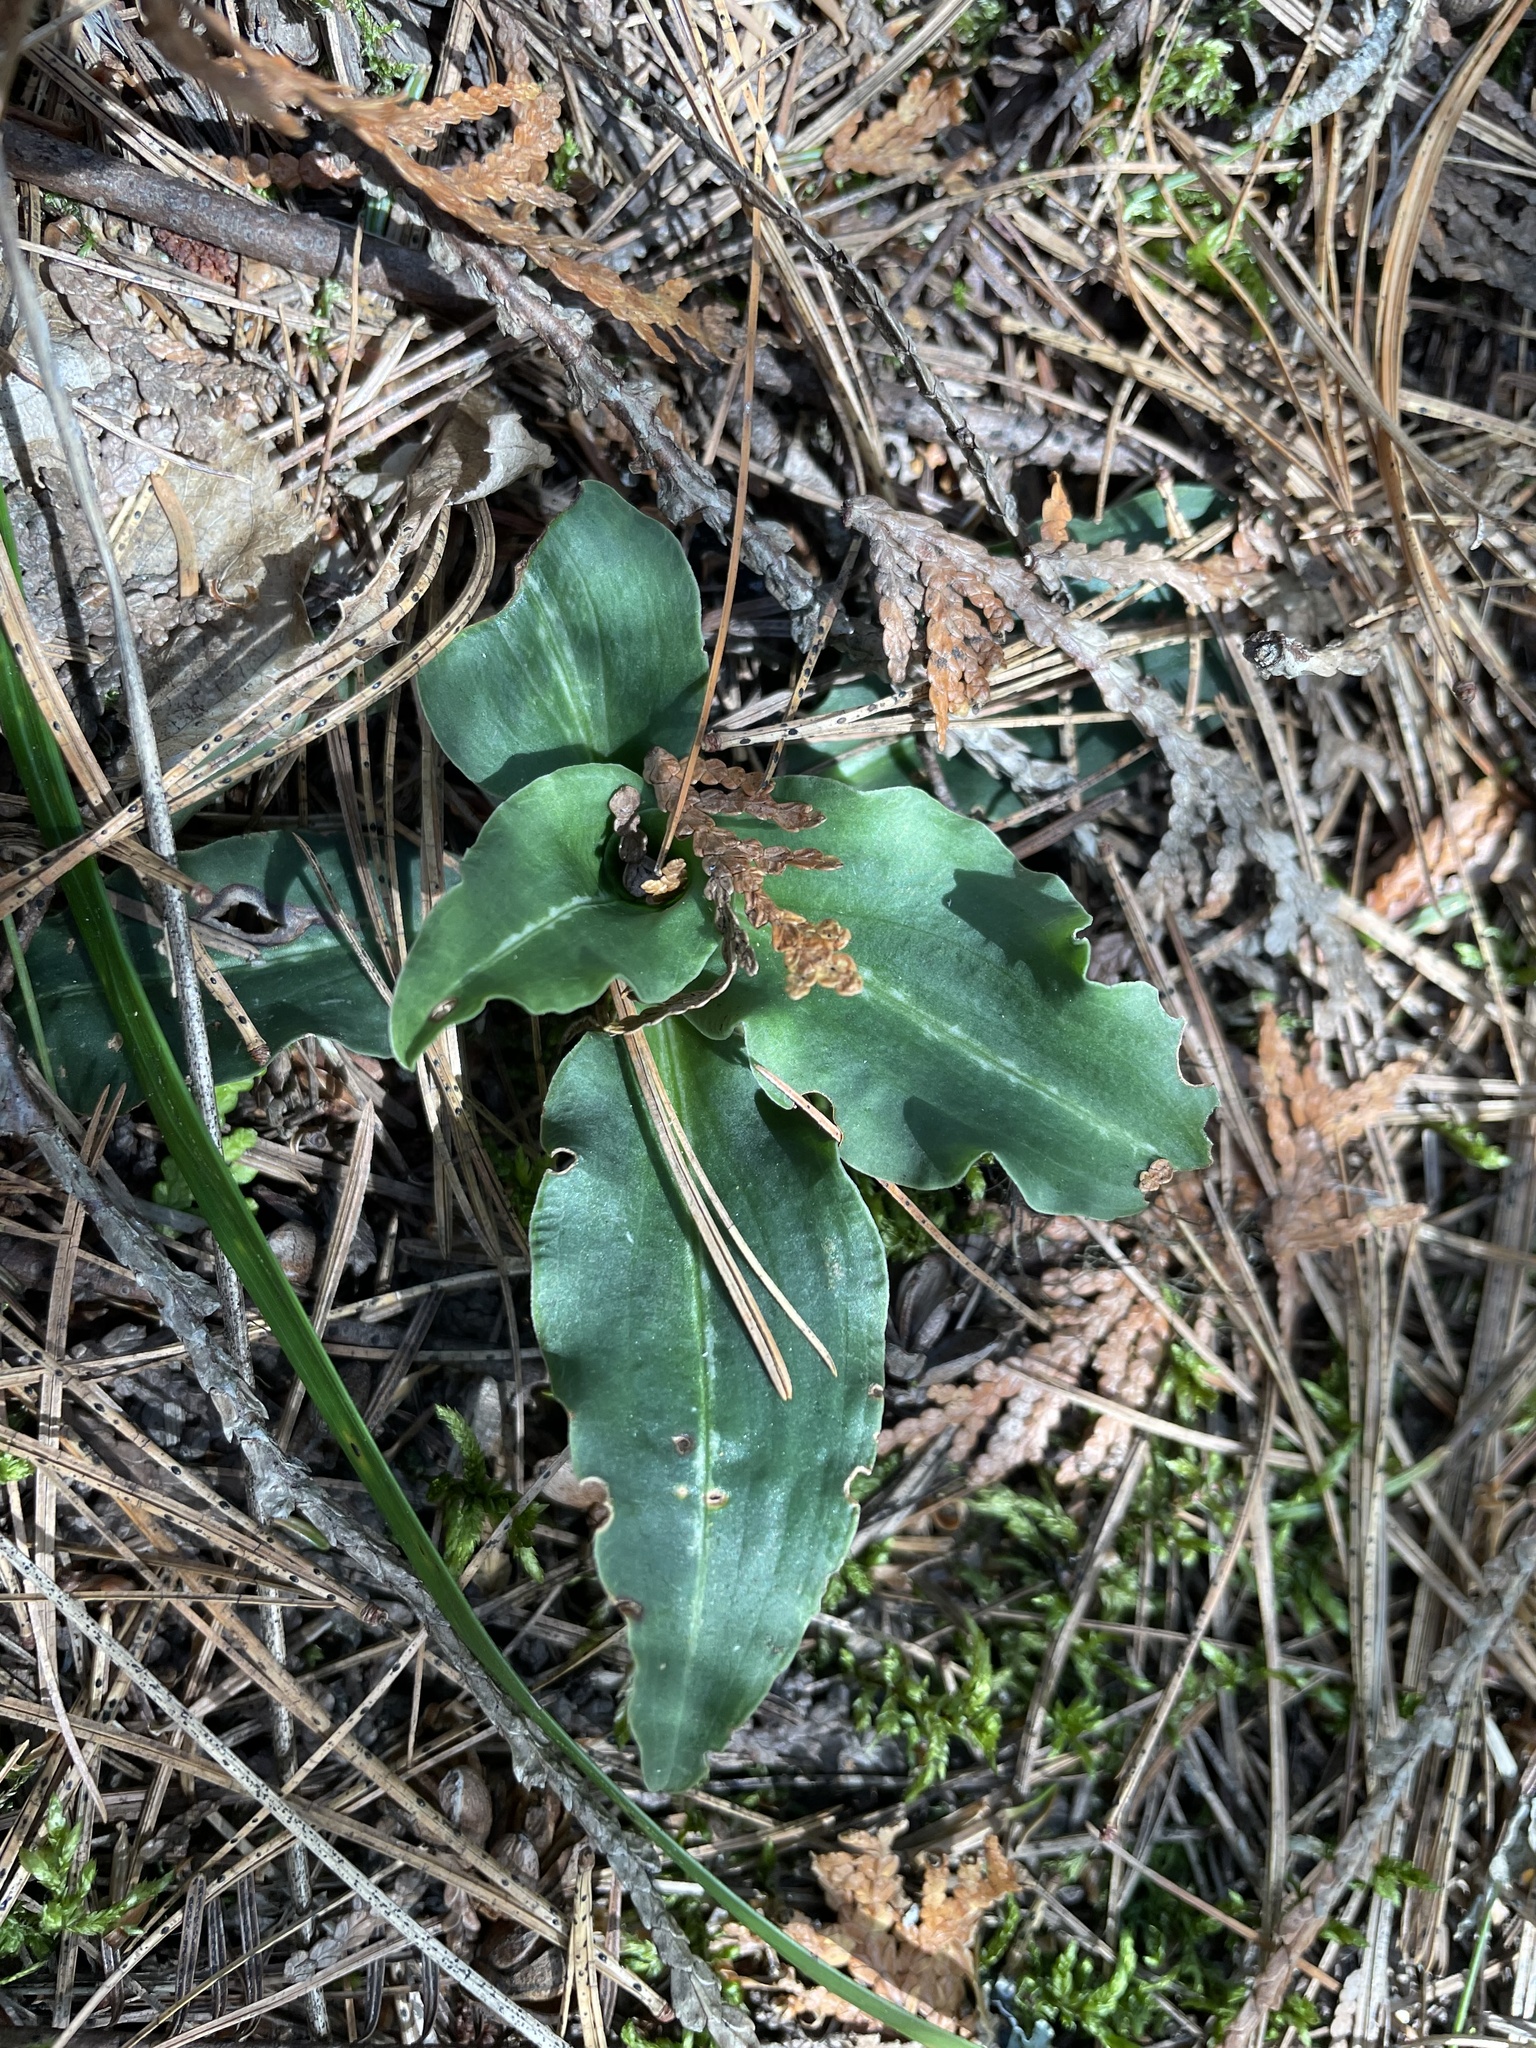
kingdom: Plantae
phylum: Tracheophyta
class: Liliopsida
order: Asparagales
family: Orchidaceae
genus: Goodyera
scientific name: Goodyera oblongifolia
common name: Giant rattlesnake-plantain
